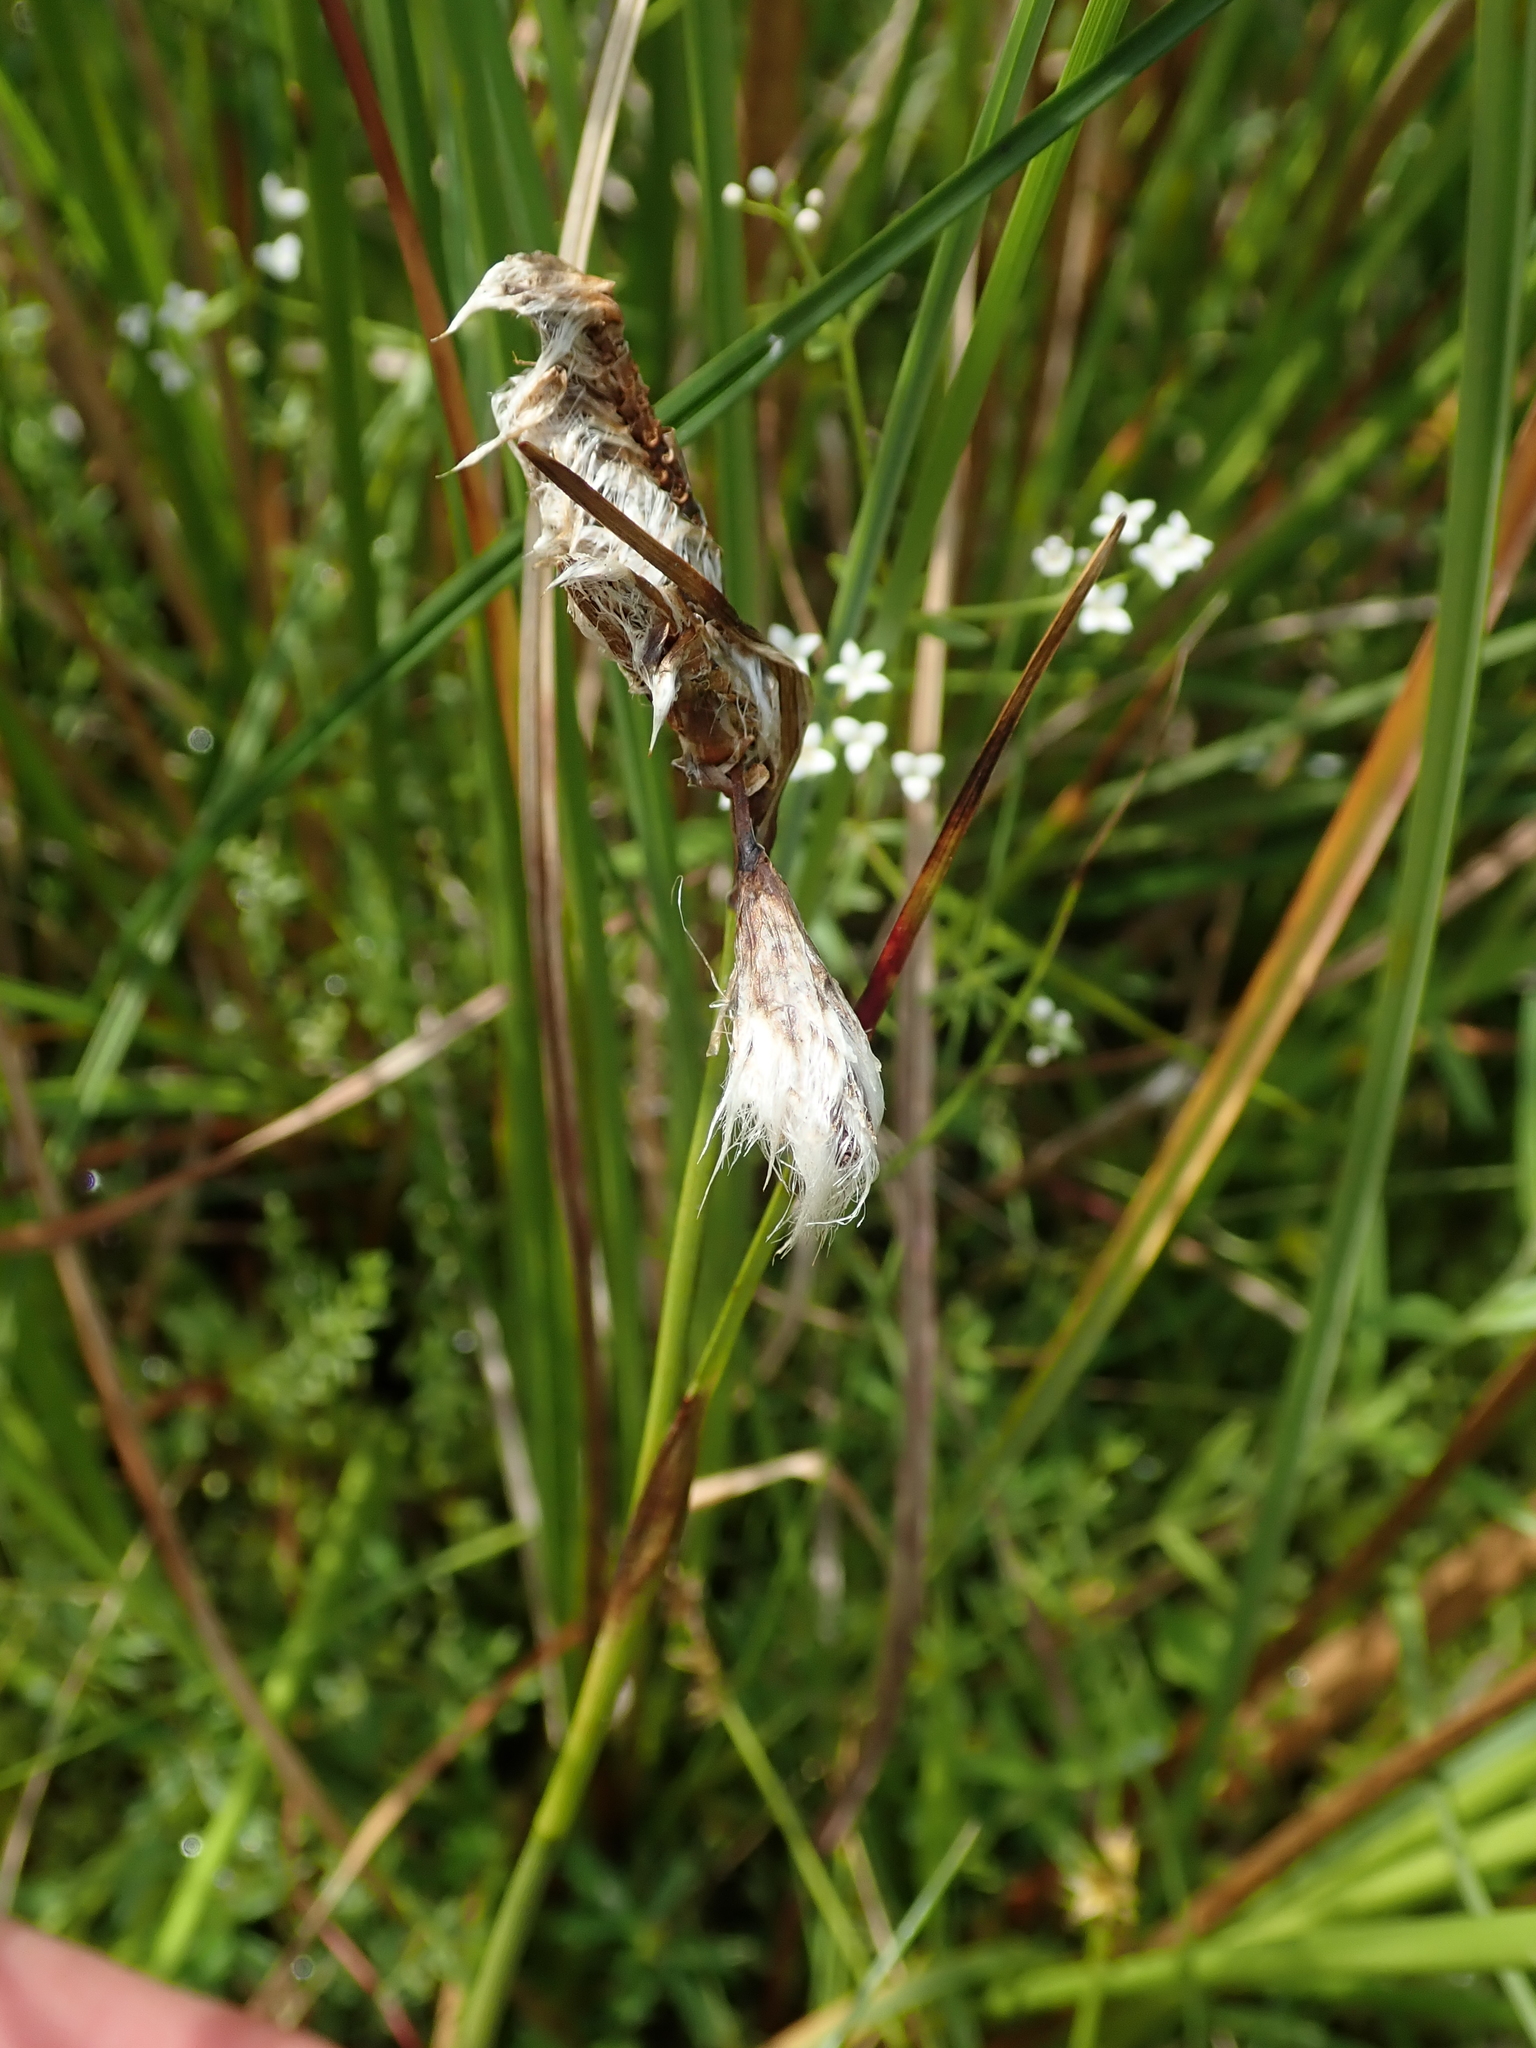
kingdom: Plantae
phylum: Tracheophyta
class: Liliopsida
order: Poales
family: Cyperaceae
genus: Eriophorum
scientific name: Eriophorum angustifolium
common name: Common cottongrass
